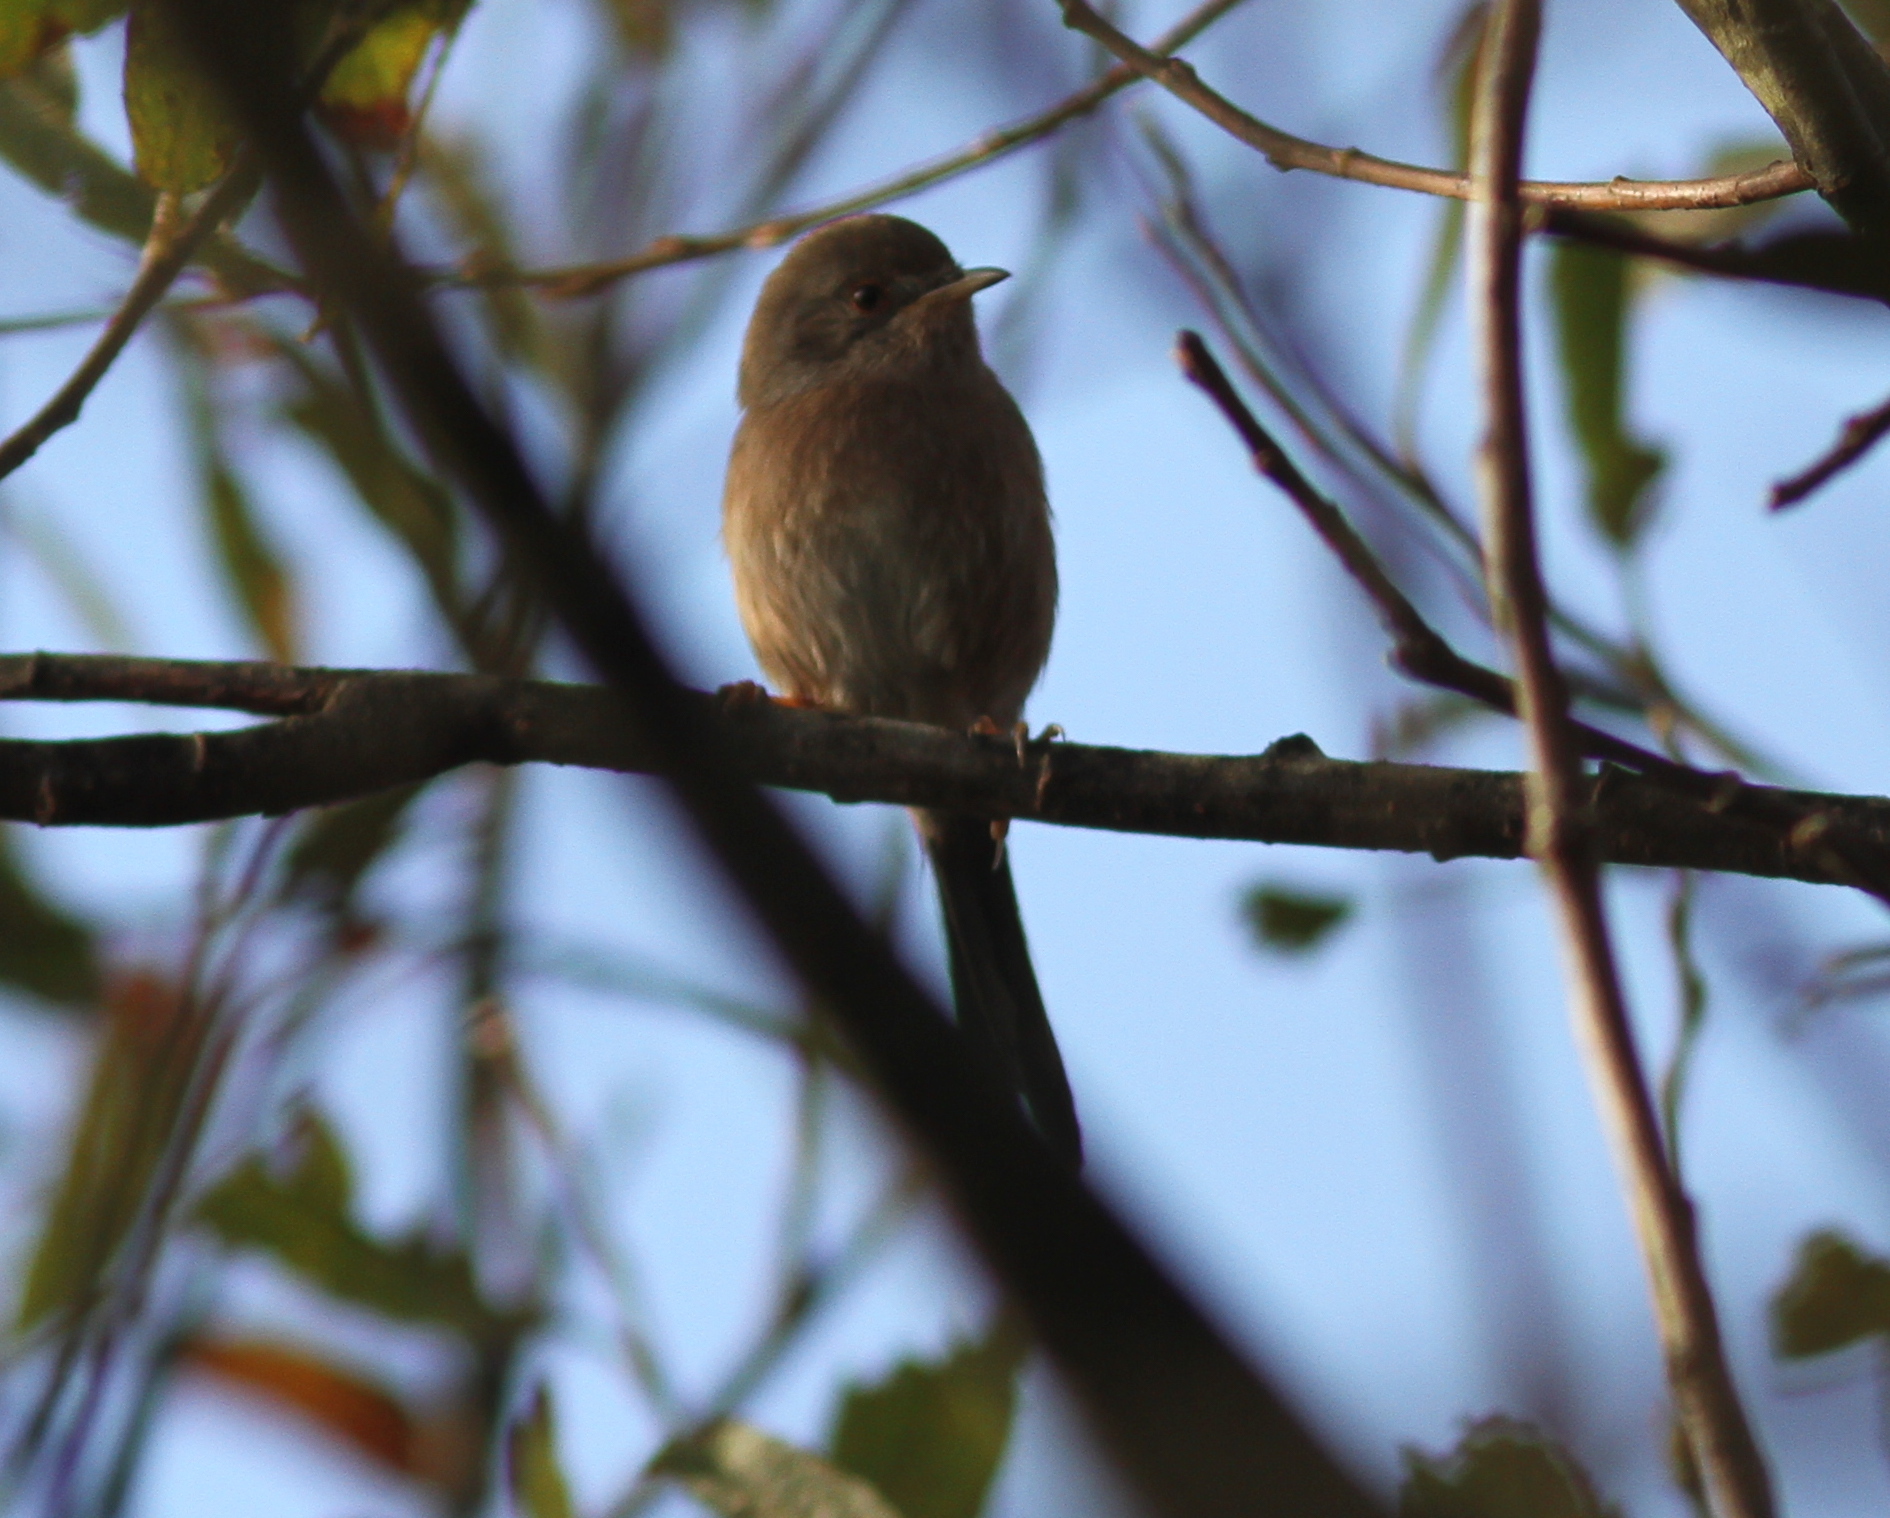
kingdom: Animalia
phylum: Chordata
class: Aves
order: Passeriformes
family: Sylviidae
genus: Sylvia
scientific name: Sylvia undata
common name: Dartford warbler
